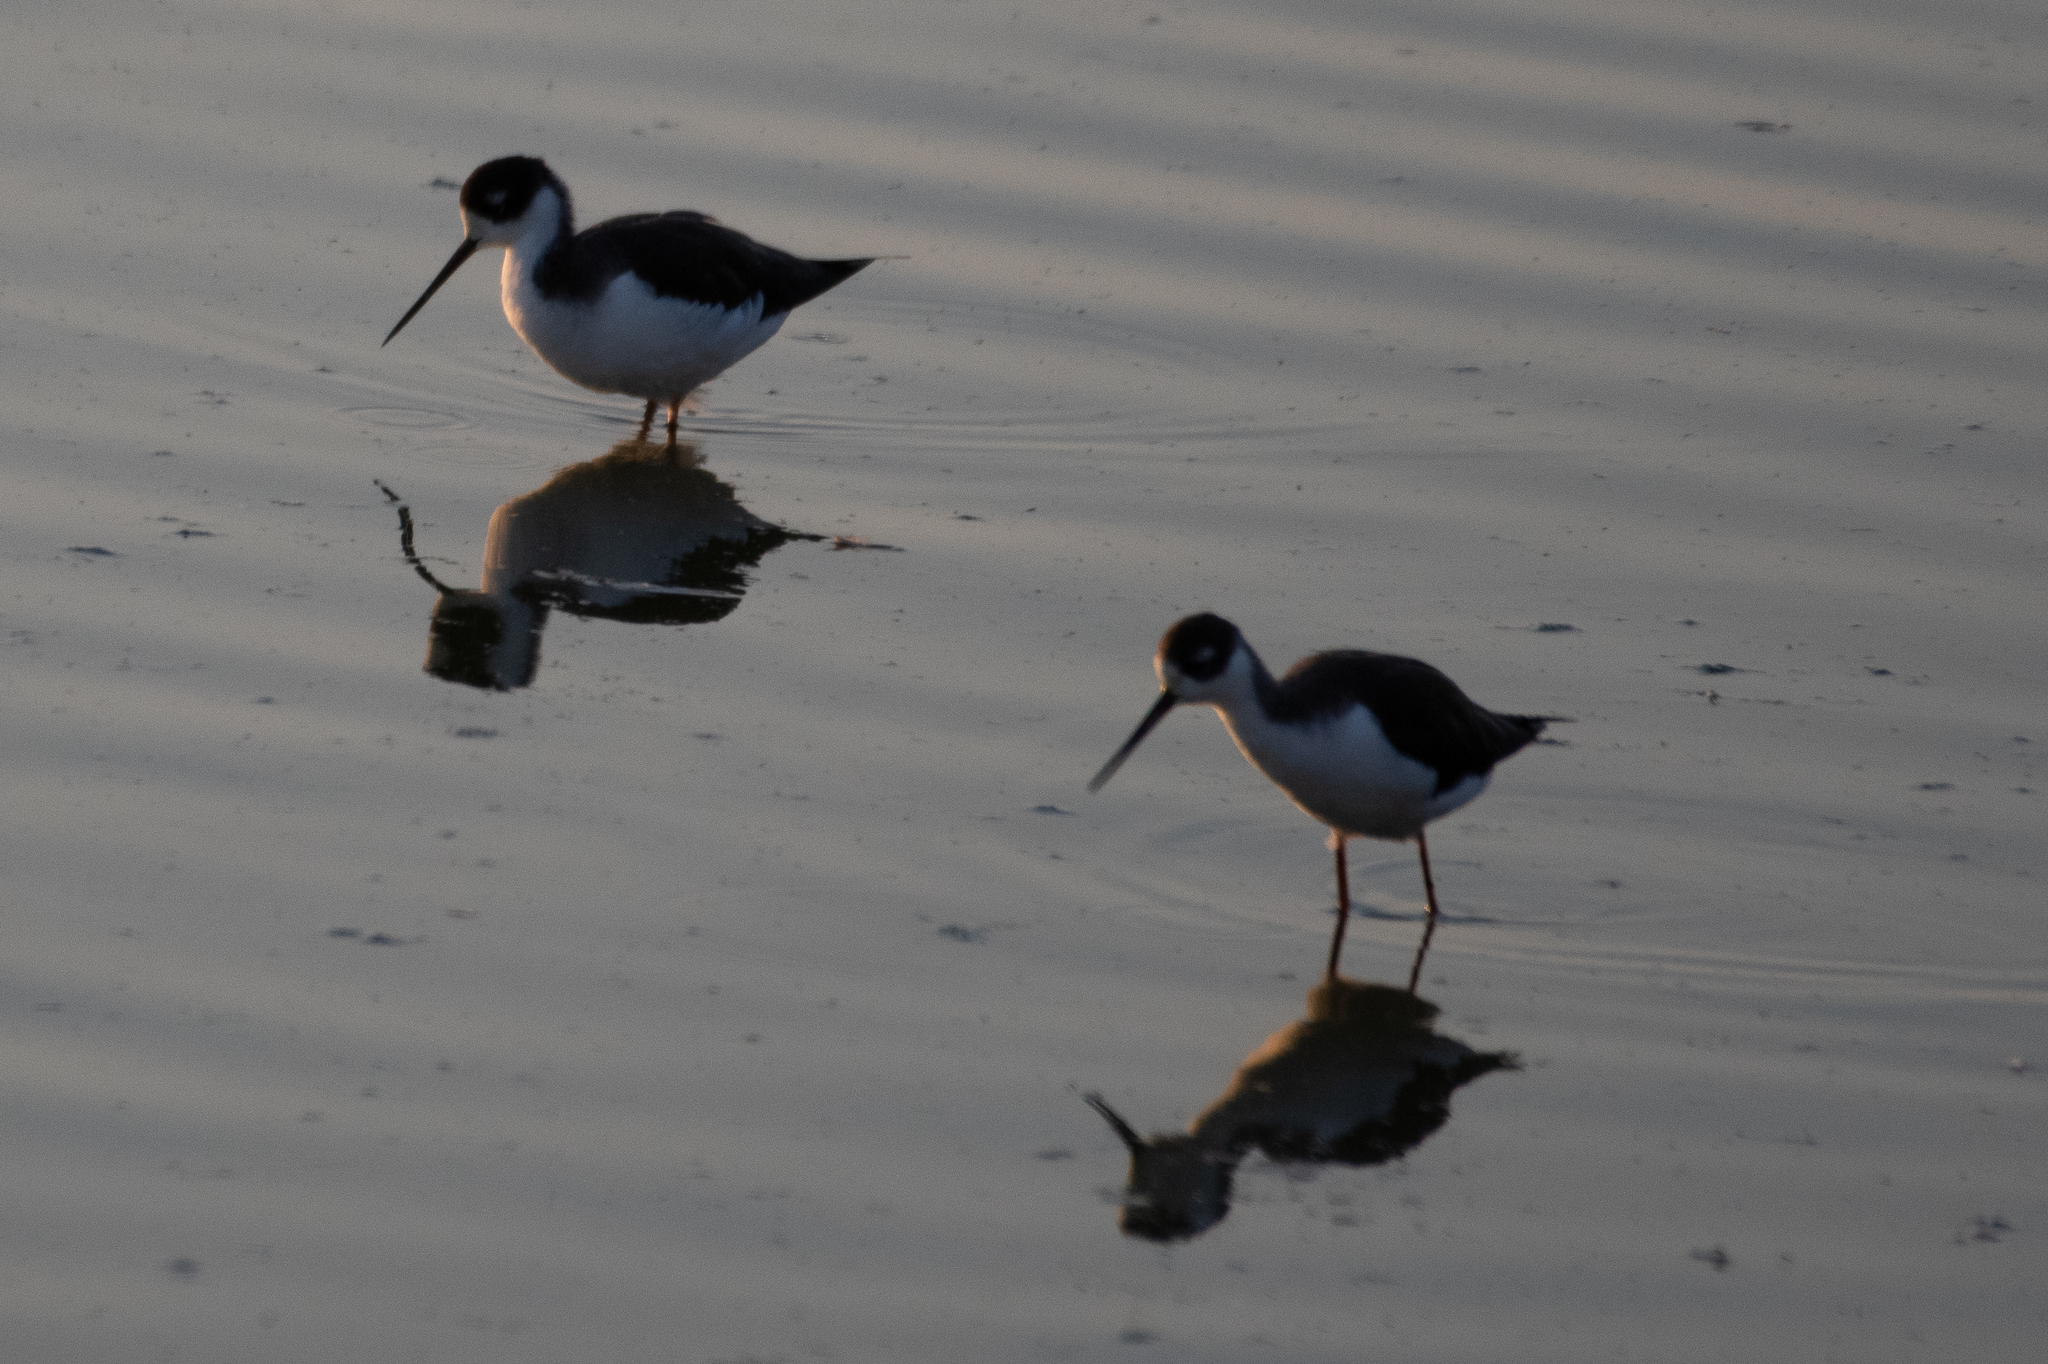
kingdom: Animalia
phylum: Chordata
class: Aves
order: Charadriiformes
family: Recurvirostridae
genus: Himantopus
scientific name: Himantopus mexicanus
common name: Black-necked stilt
